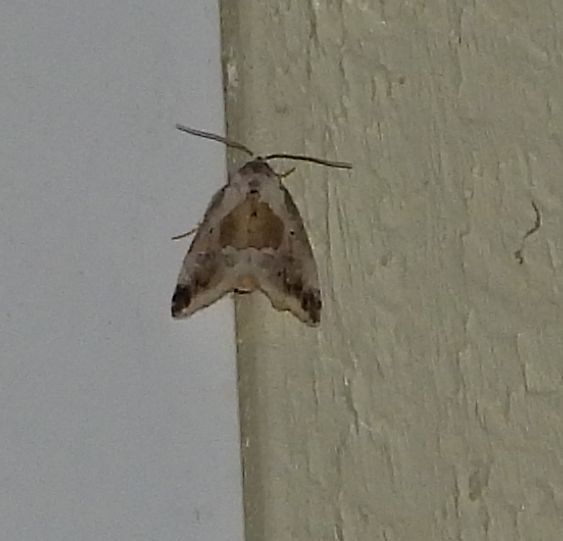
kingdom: Animalia
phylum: Arthropoda
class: Insecta
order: Lepidoptera
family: Noctuidae
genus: Maliattha
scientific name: Maliattha synochitis
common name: Black-dotted glyph
